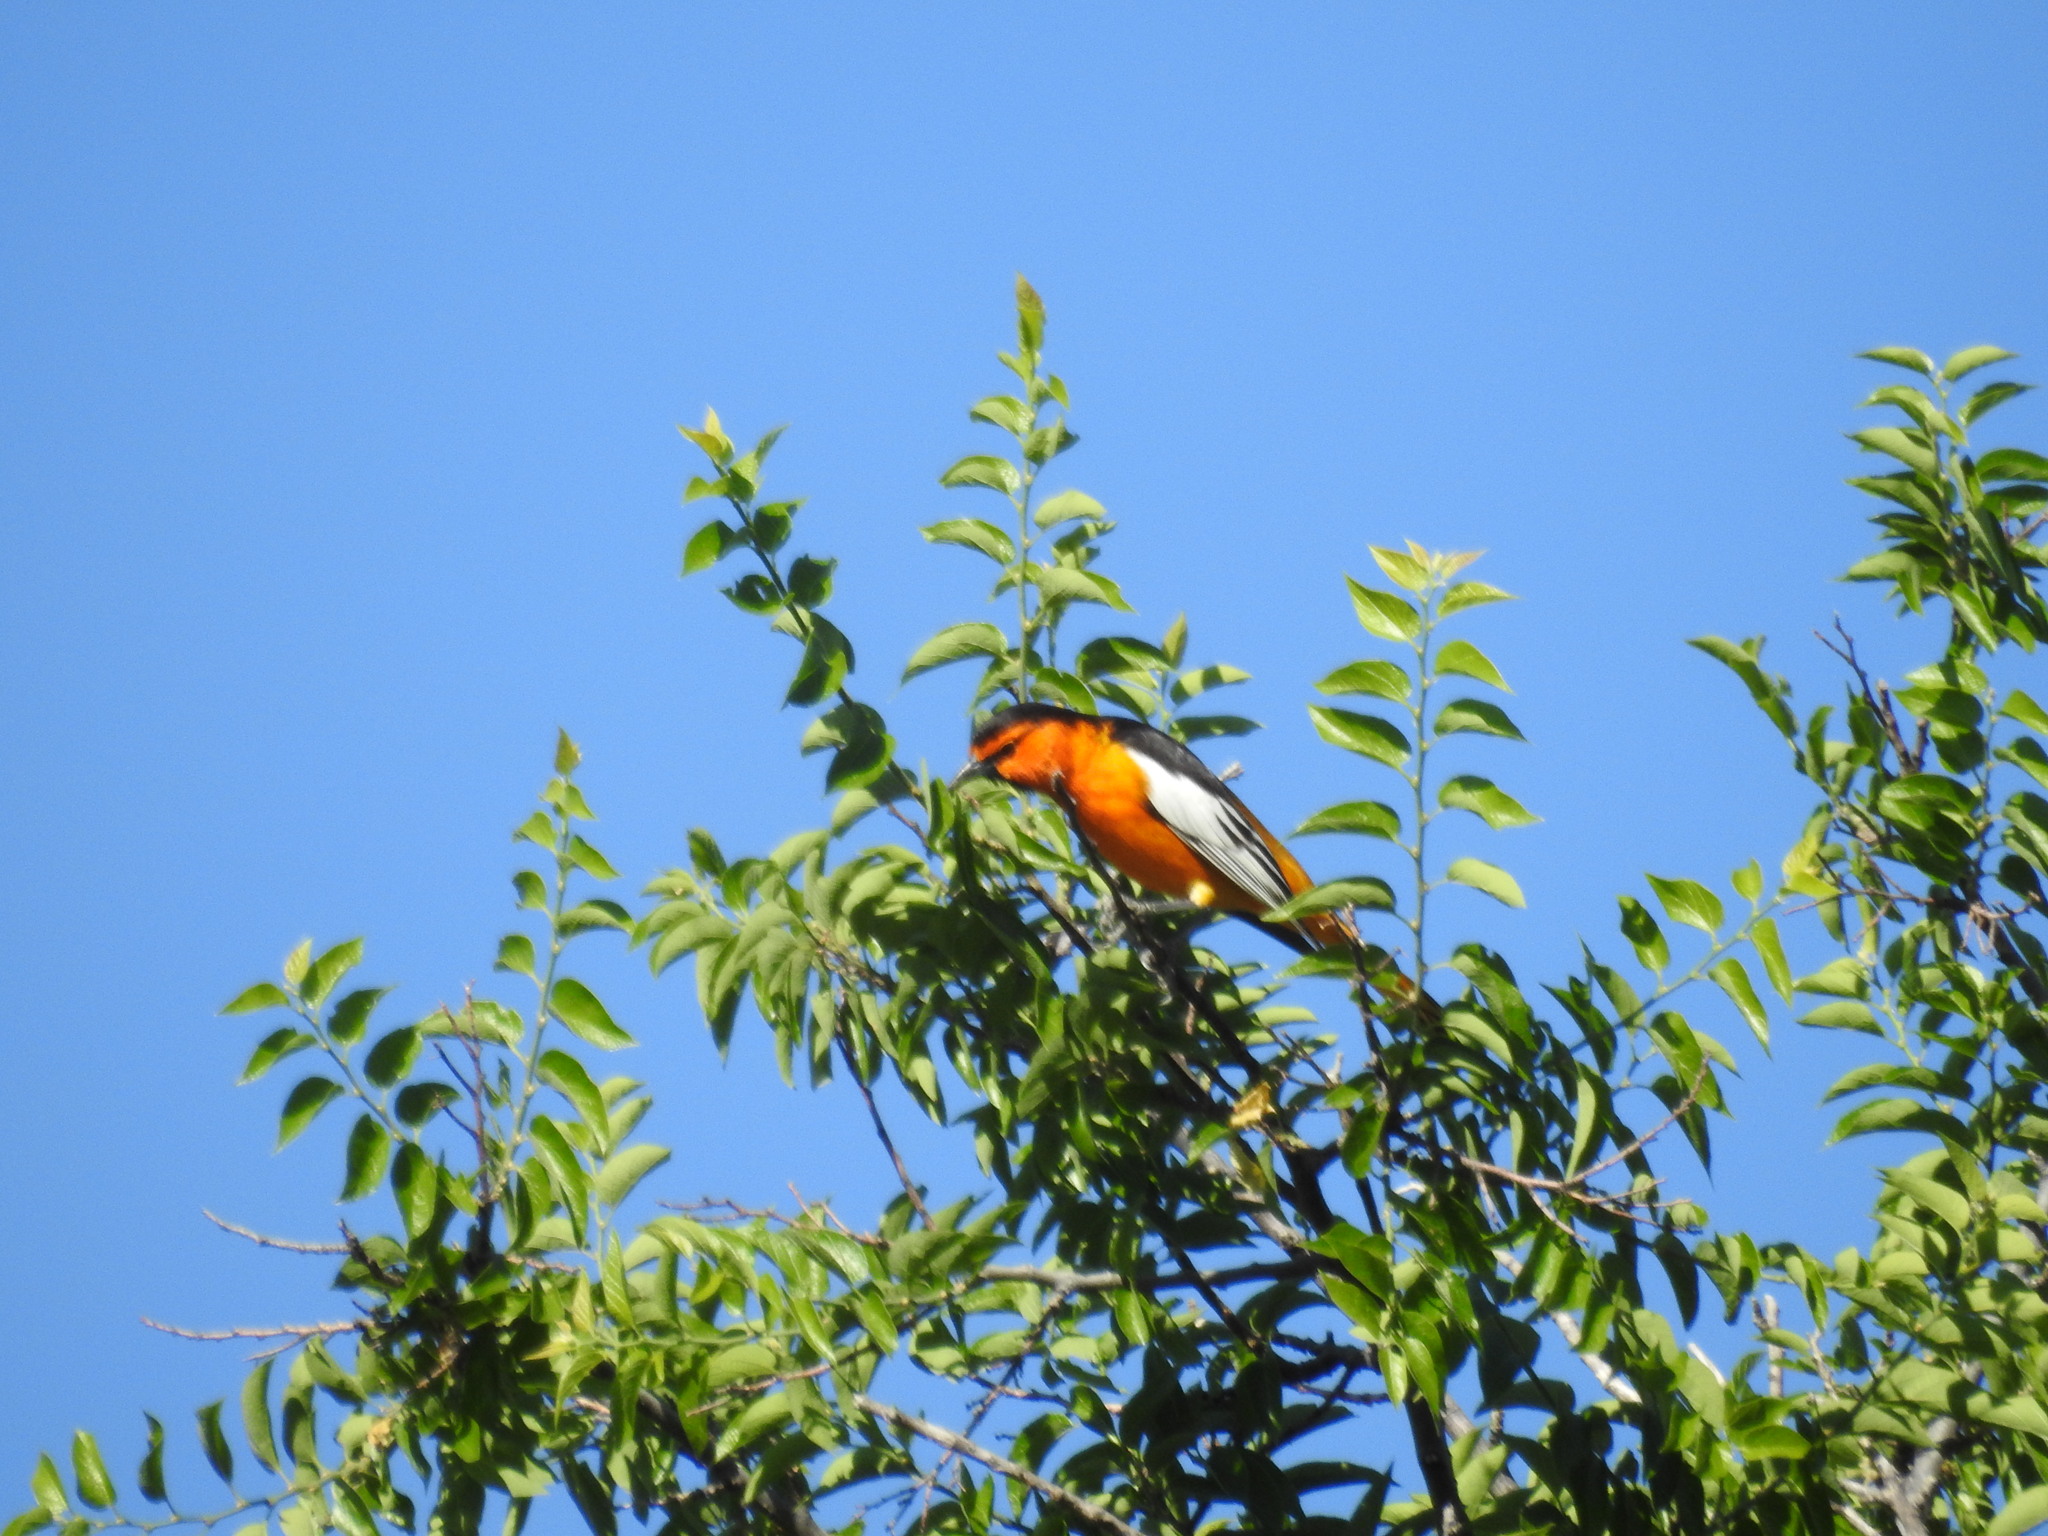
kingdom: Animalia
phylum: Chordata
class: Aves
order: Passeriformes
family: Icteridae
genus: Icterus
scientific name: Icterus bullockii
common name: Bullock's oriole
